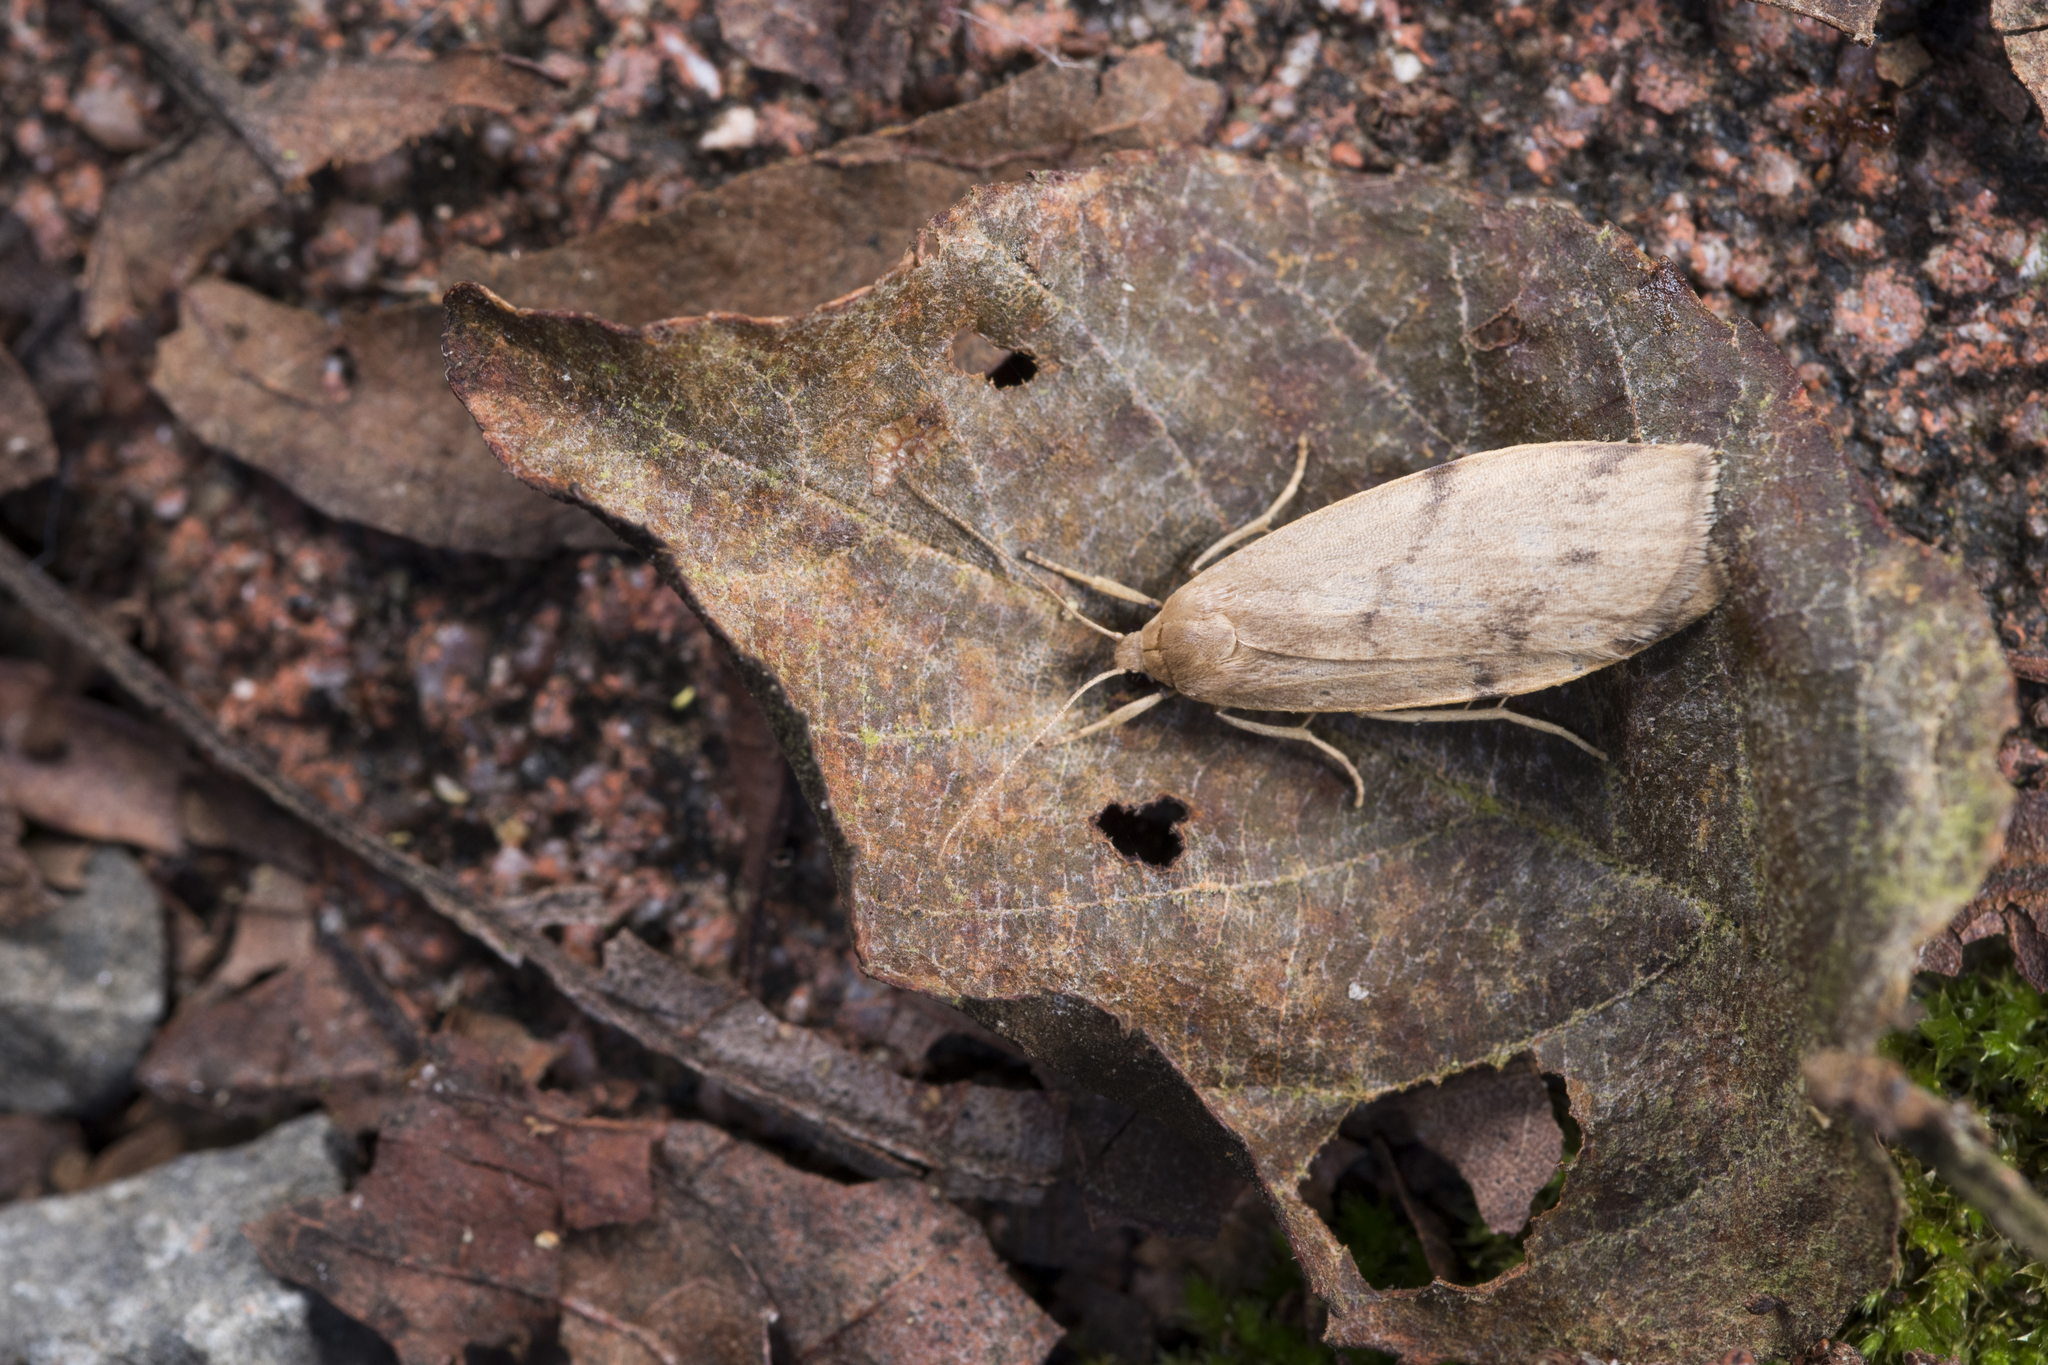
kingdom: Animalia
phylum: Arthropoda
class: Insecta
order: Lepidoptera
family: Erebidae
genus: Mithuna
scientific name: Mithuna arizana
